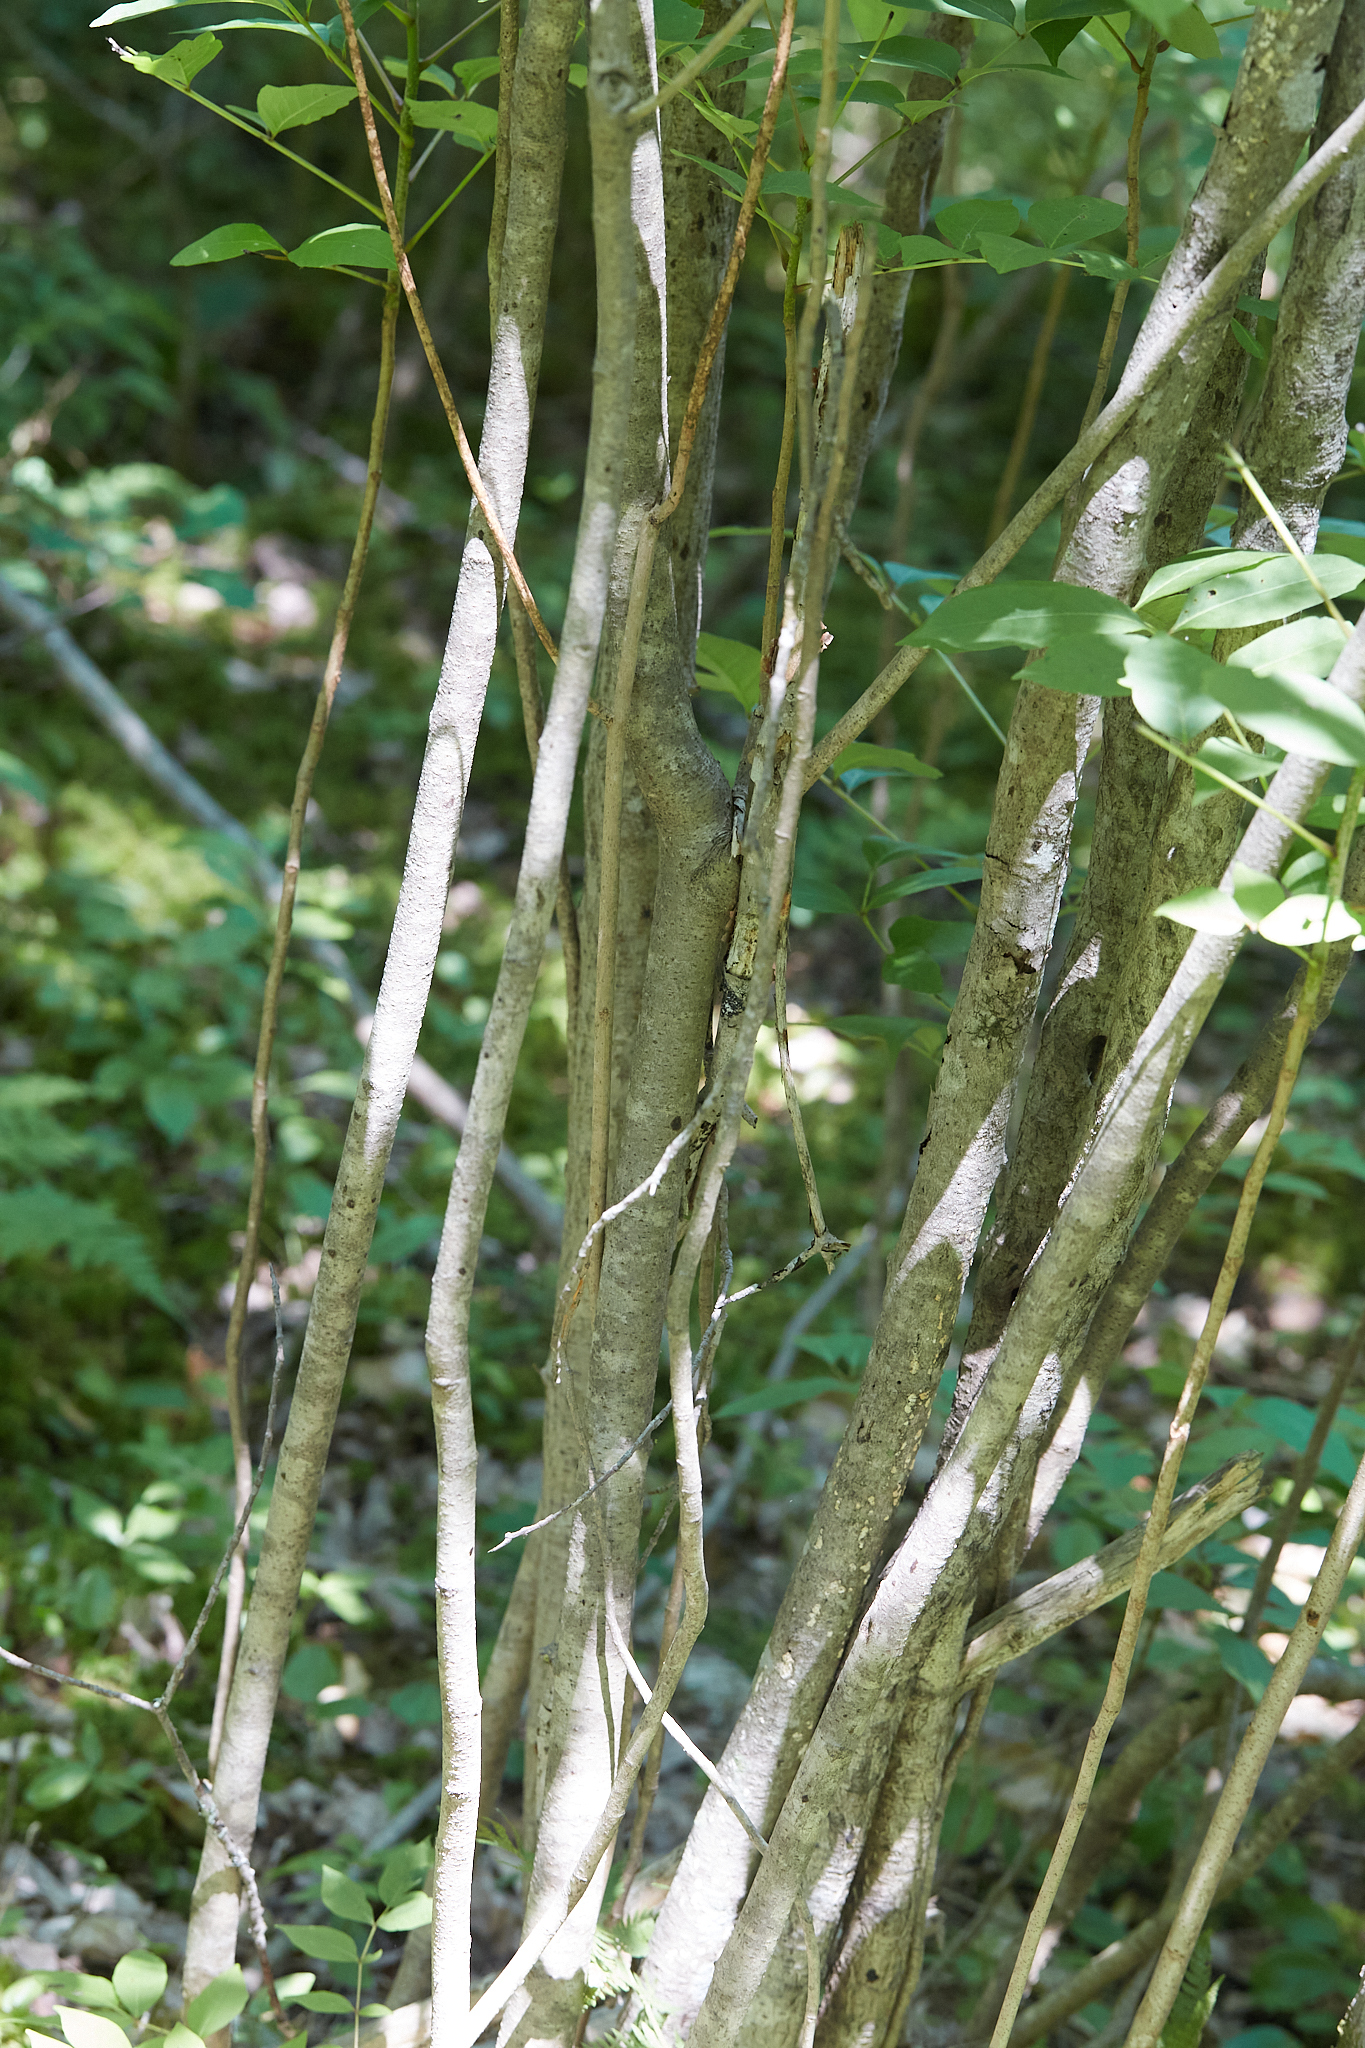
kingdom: Plantae
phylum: Tracheophyta
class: Magnoliopsida
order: Sapindales
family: Anacardiaceae
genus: Toxicodendron
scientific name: Toxicodendron vernix
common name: Poison sumac
